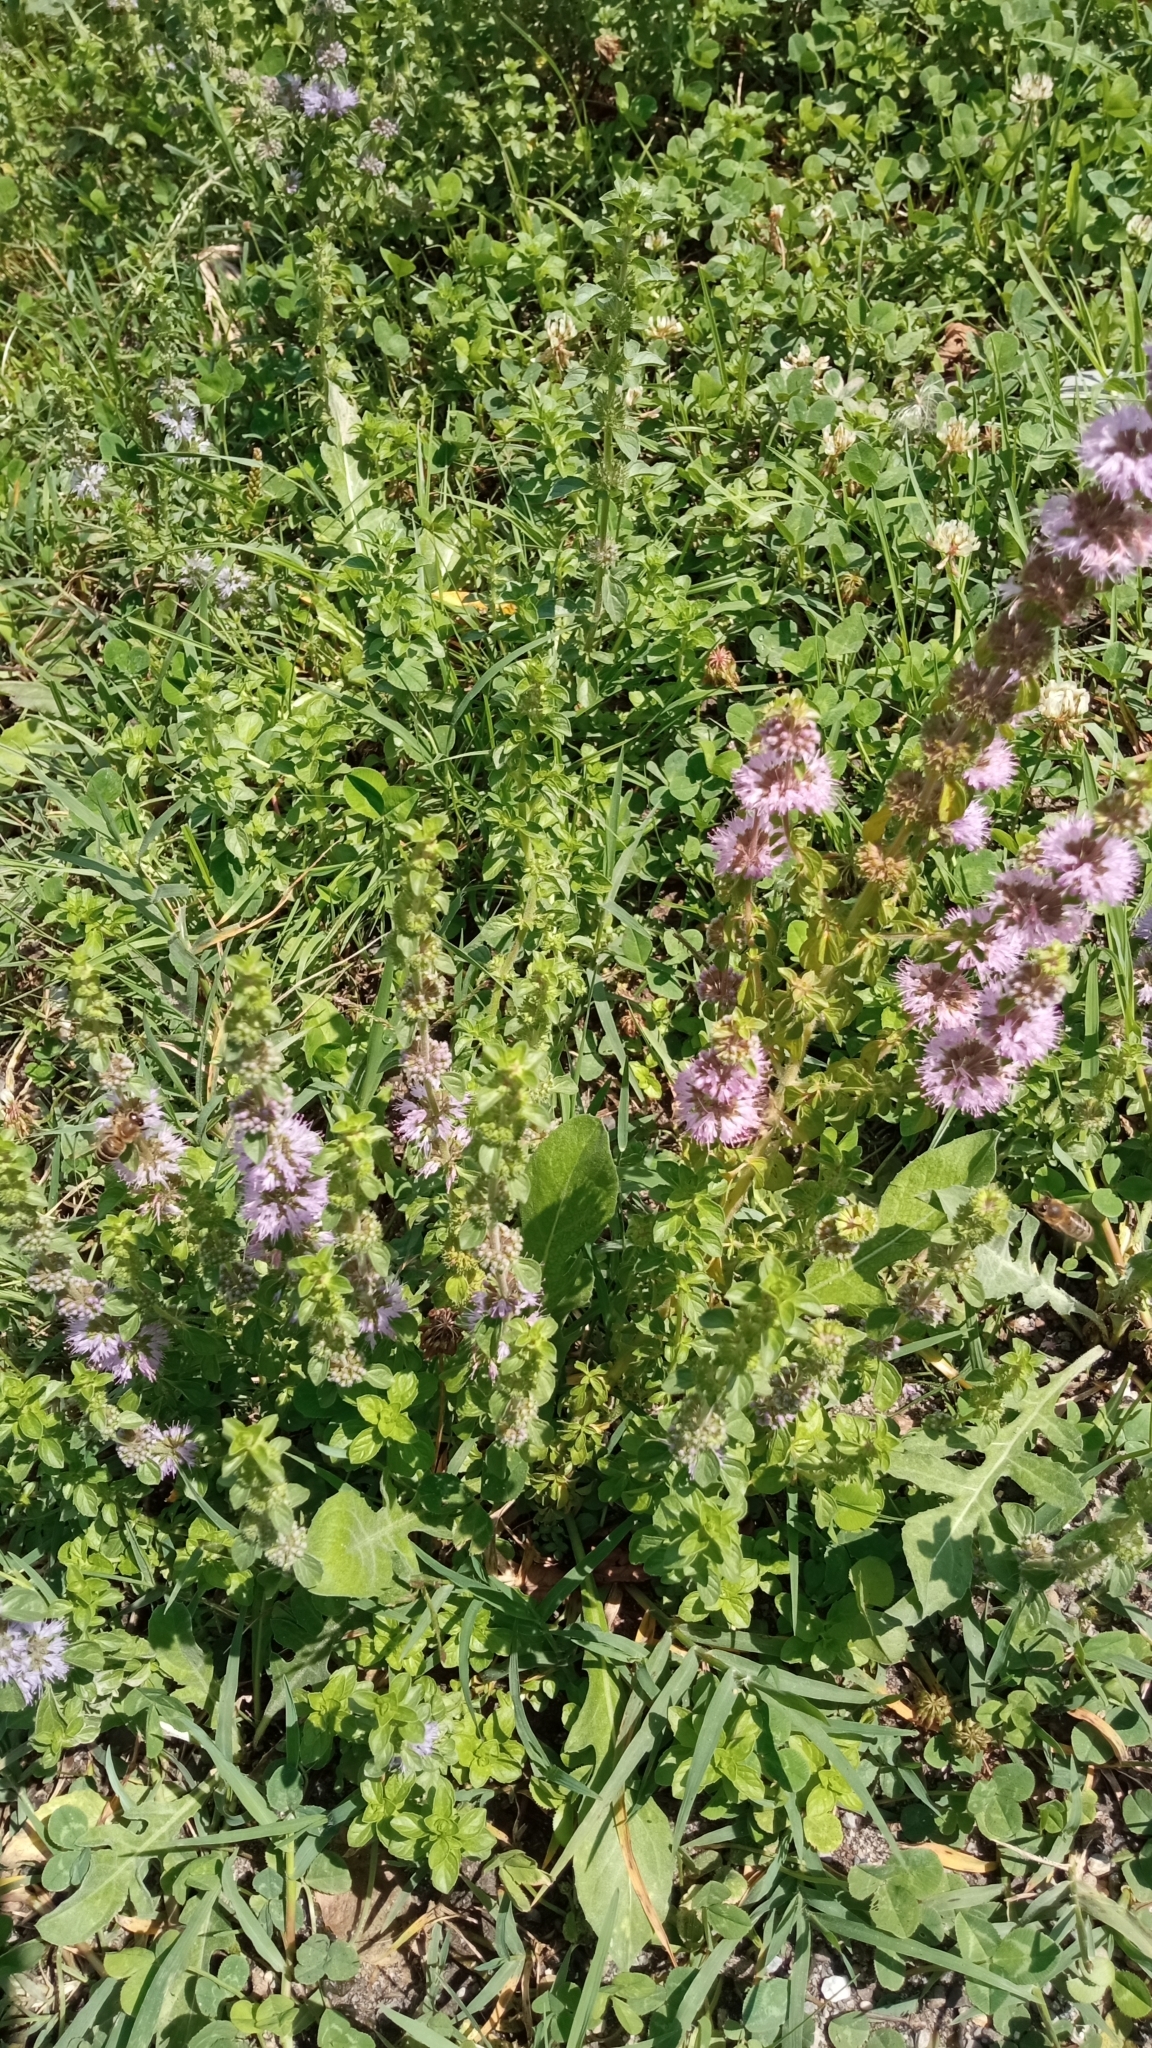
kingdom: Plantae
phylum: Tracheophyta
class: Magnoliopsida
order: Lamiales
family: Lamiaceae
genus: Mentha
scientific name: Mentha pulegium
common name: Pennyroyal
